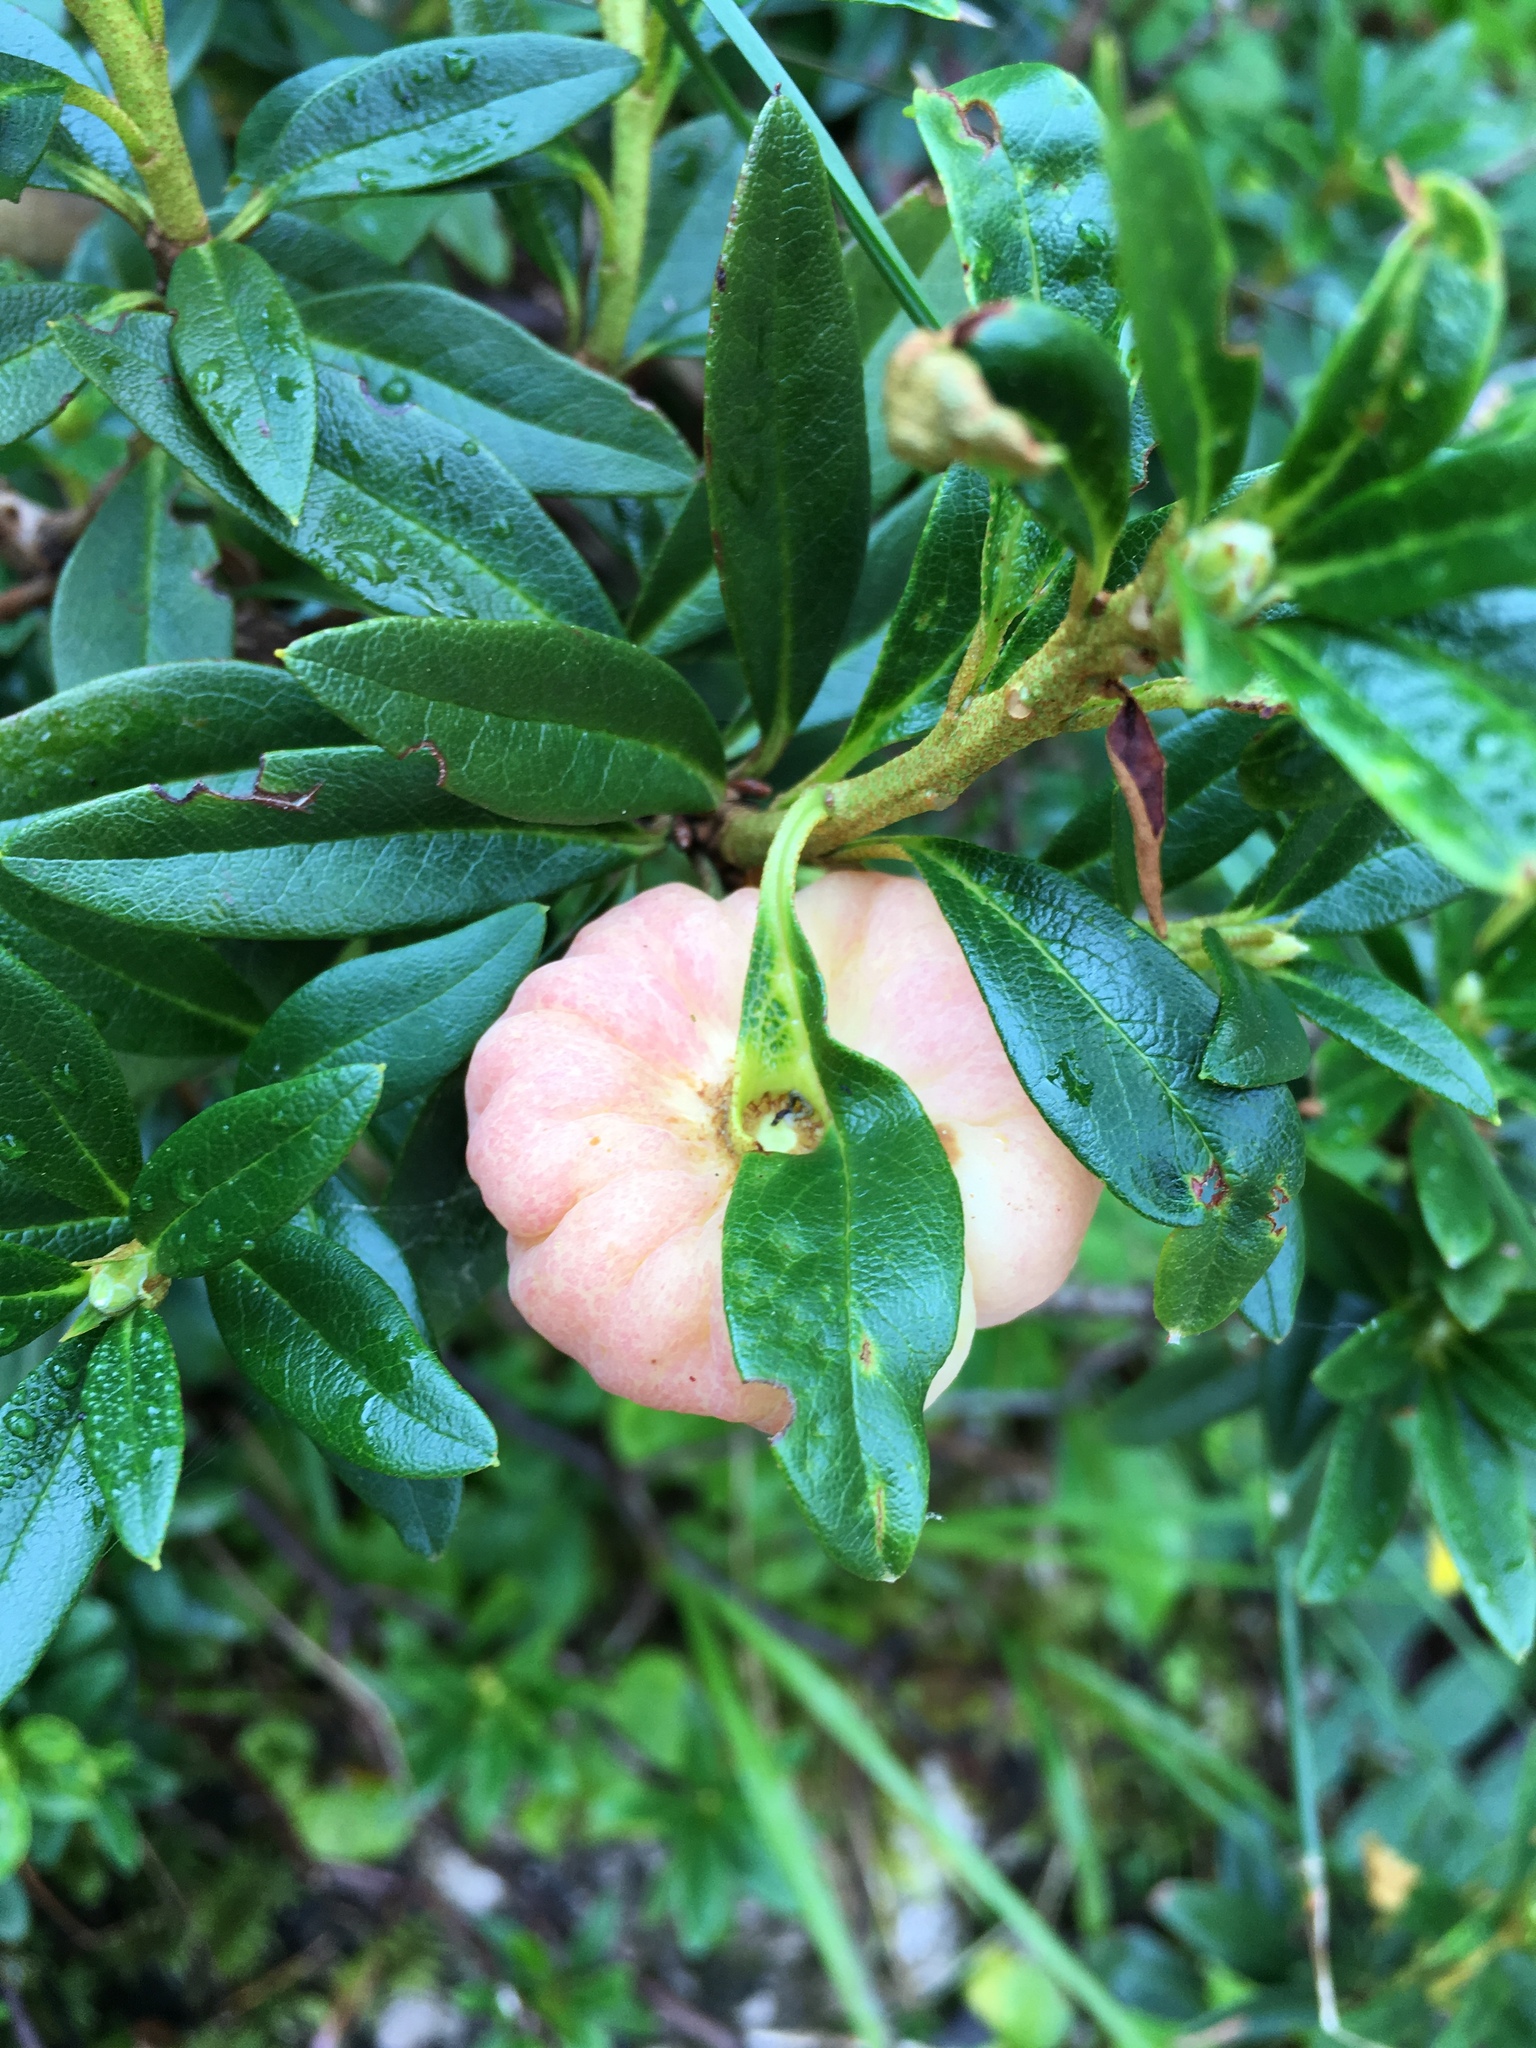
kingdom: Plantae
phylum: Tracheophyta
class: Magnoliopsida
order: Ericales
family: Ericaceae
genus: Rhododendron
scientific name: Rhododendron ferrugineum
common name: Alpenrose
